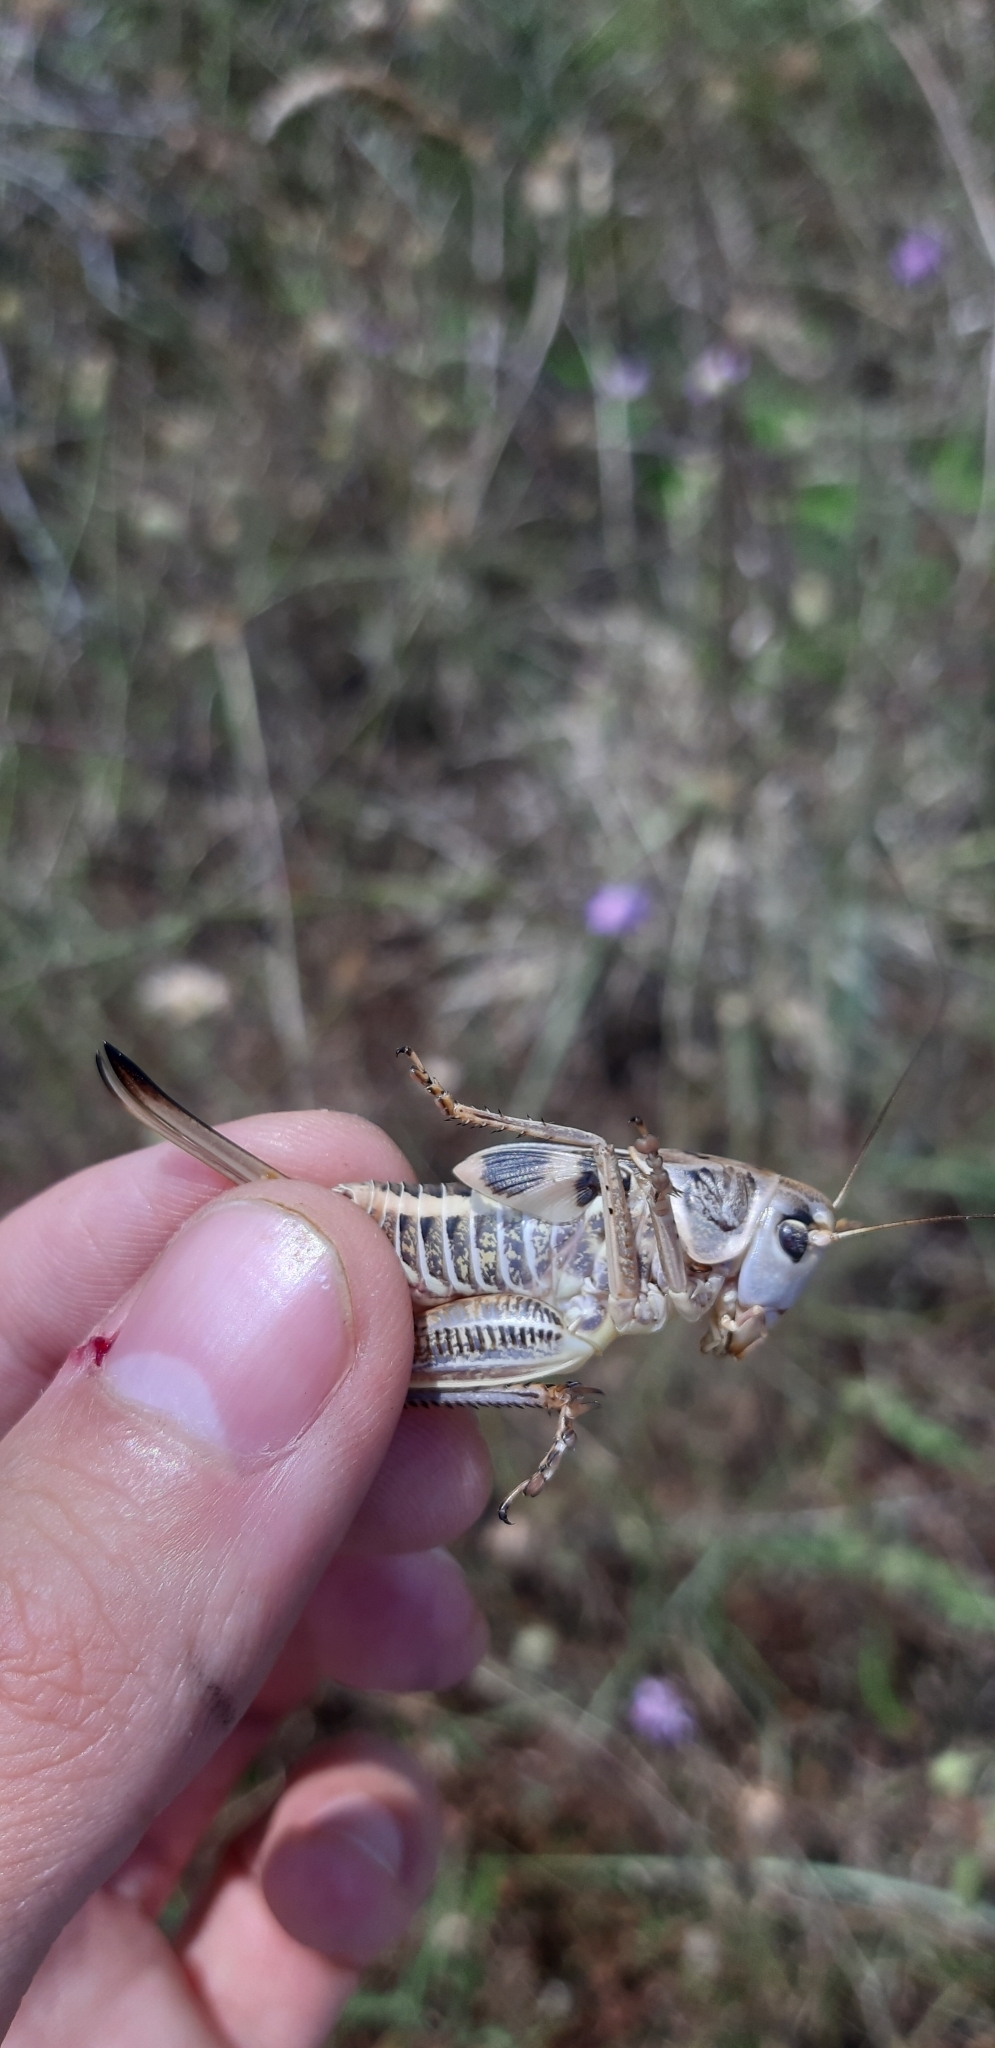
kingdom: Animalia
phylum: Arthropoda
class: Insecta
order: Orthoptera
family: Tettigoniidae
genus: Decticus
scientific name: Decticus albifrons
